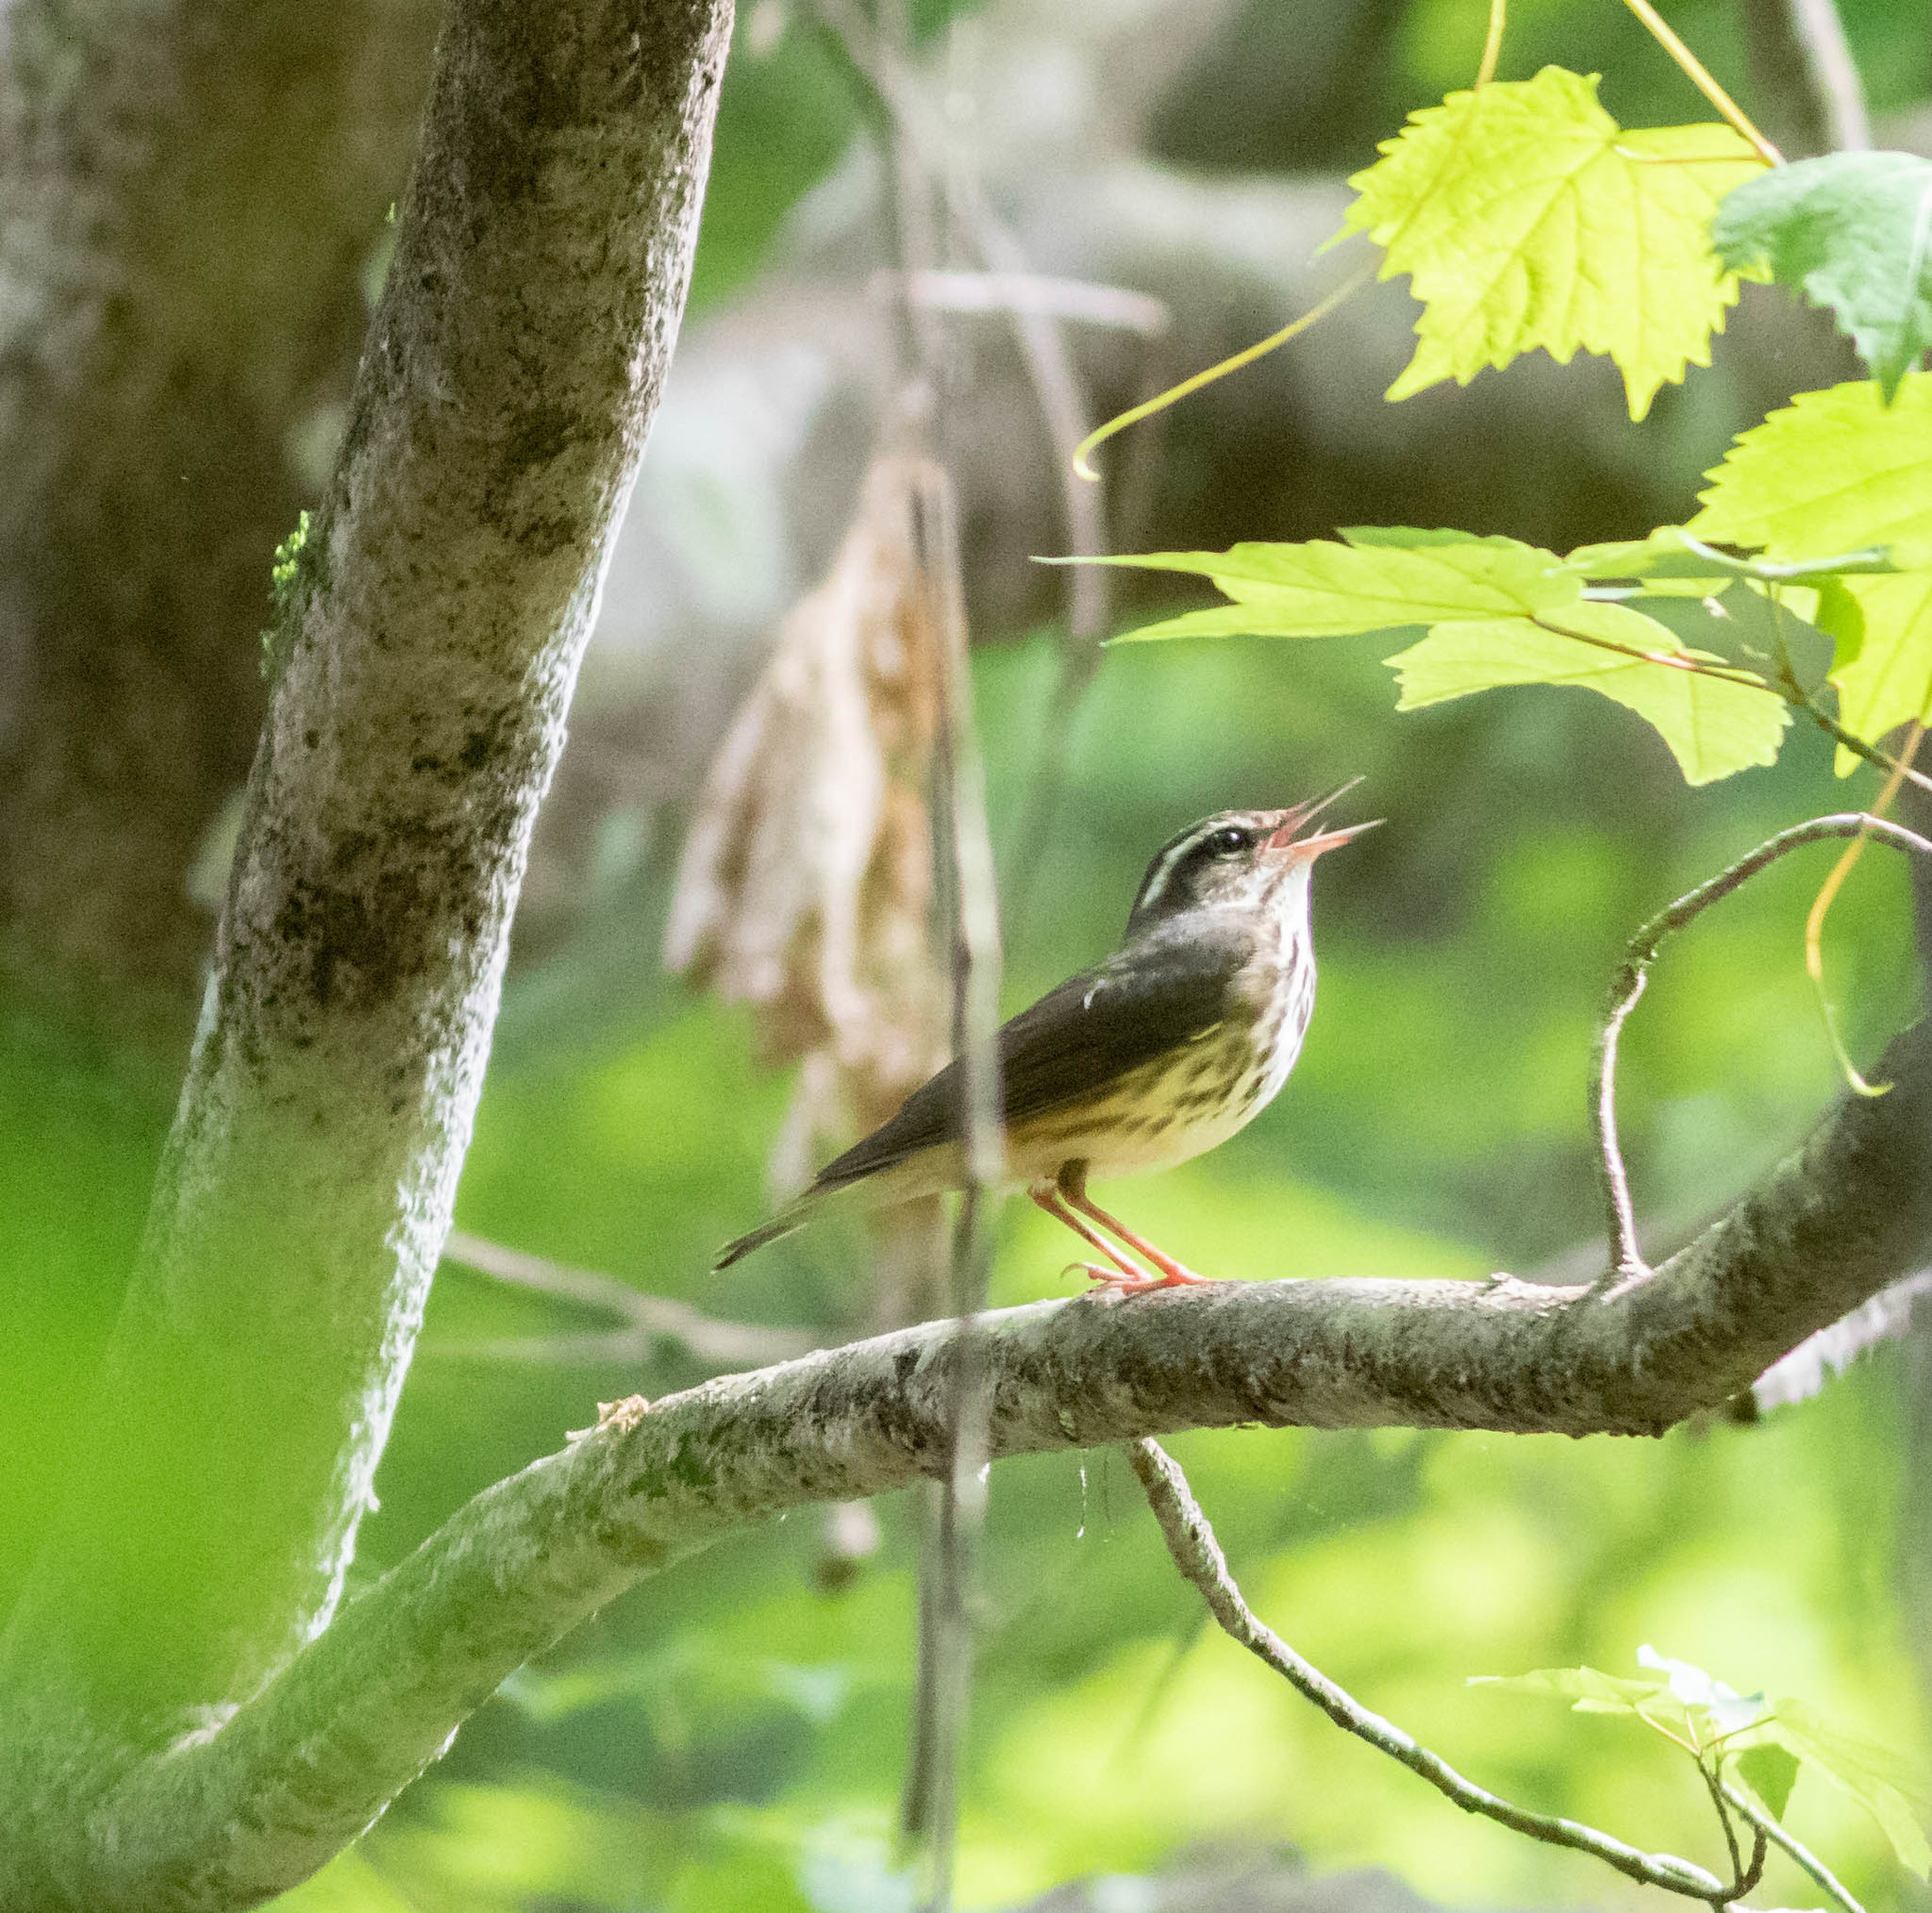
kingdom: Animalia
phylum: Chordata
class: Aves
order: Passeriformes
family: Parulidae
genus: Parkesia
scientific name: Parkesia motacilla
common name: Louisiana waterthrush
